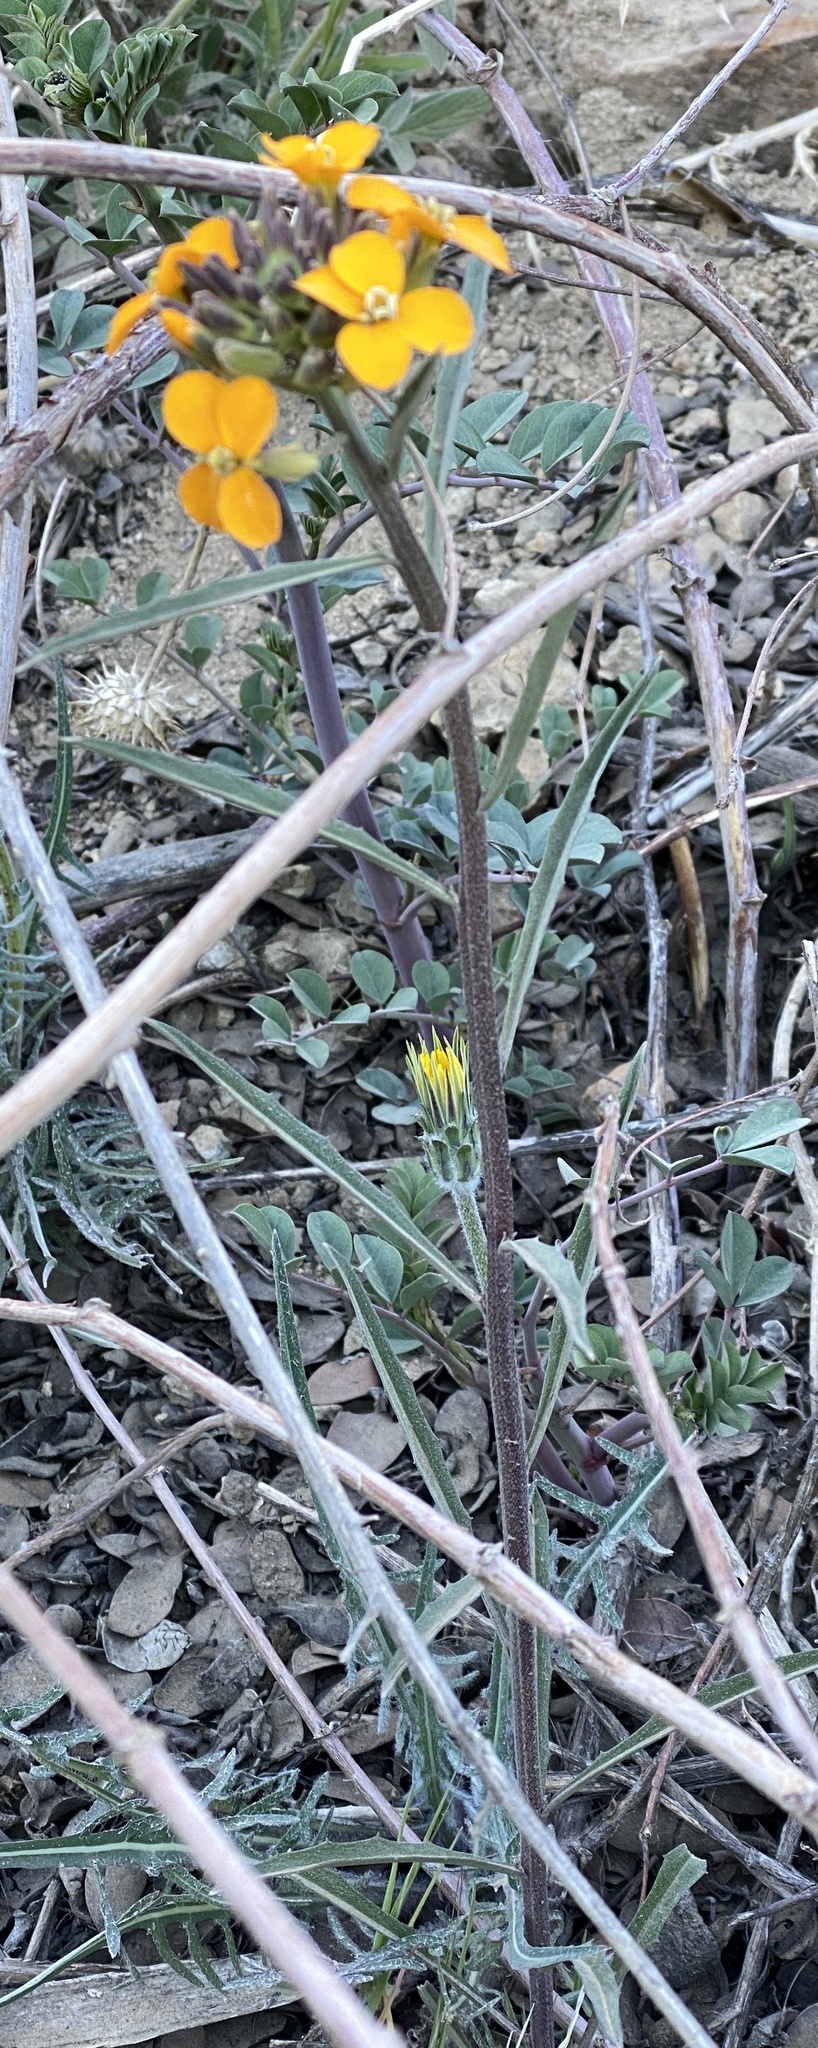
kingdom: Plantae
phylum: Tracheophyta
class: Magnoliopsida
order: Brassicales
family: Brassicaceae
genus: Erysimum
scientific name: Erysimum capitatum
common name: Western wallflower
